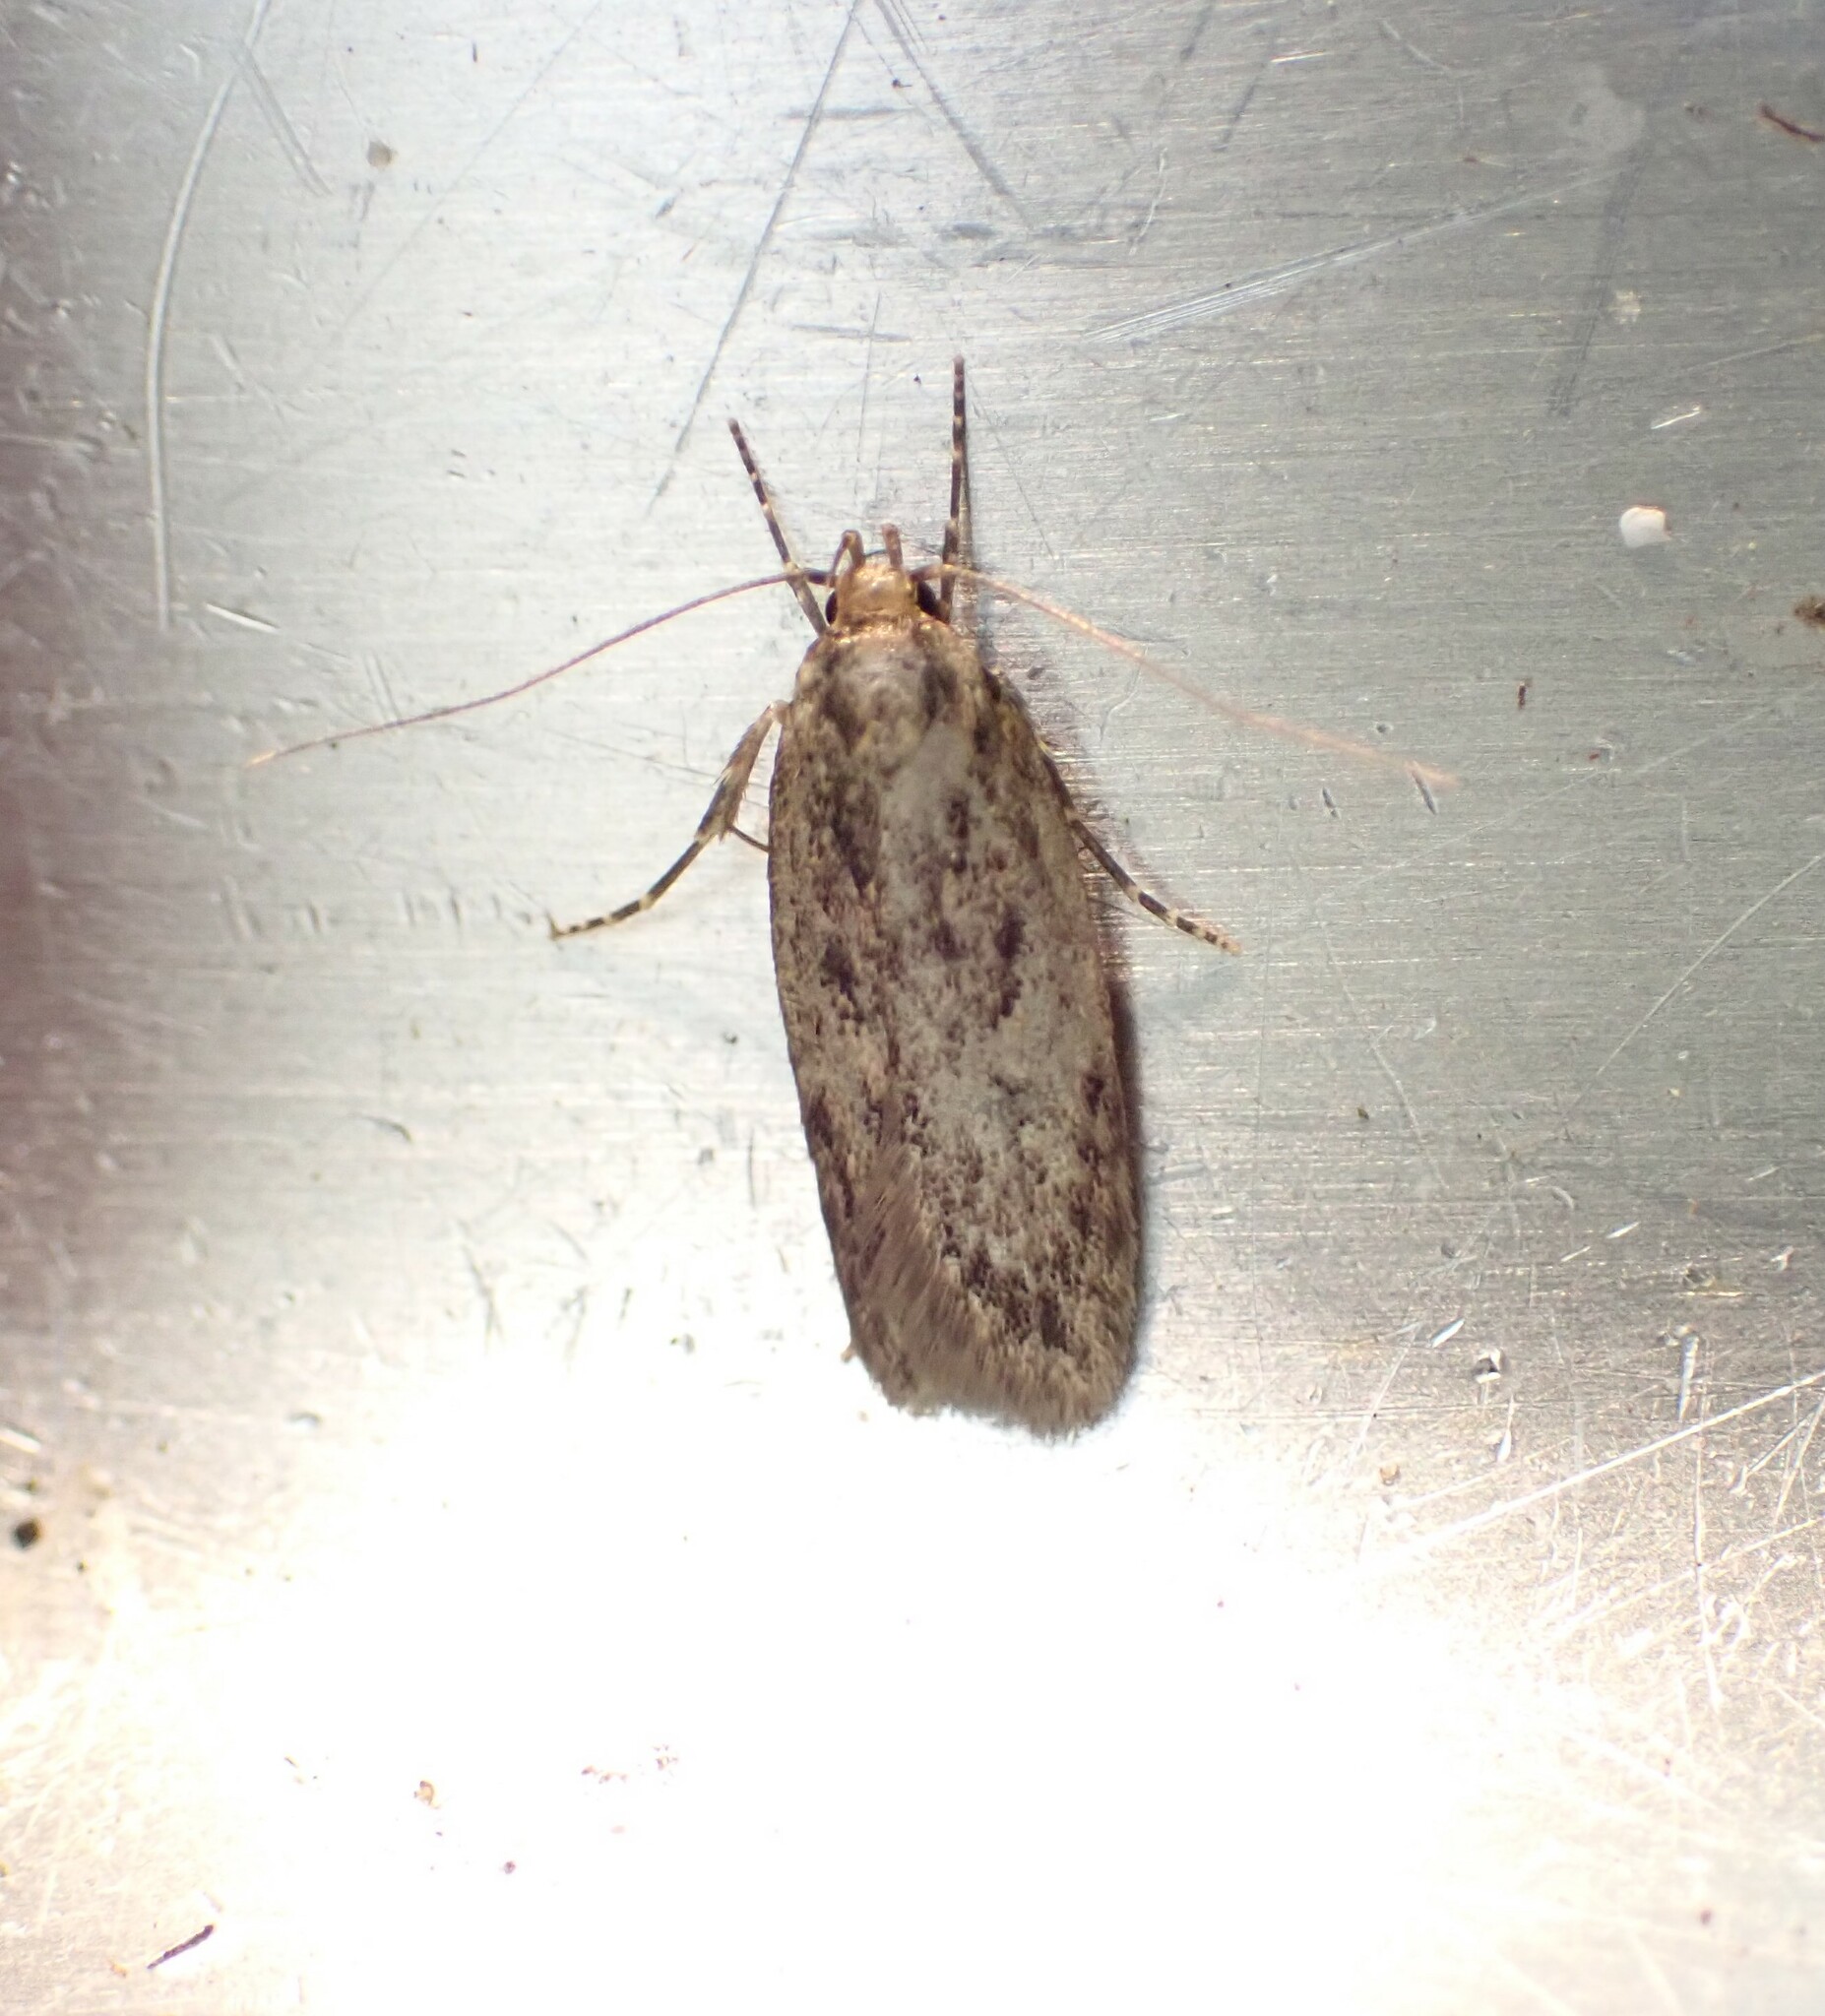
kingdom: Animalia
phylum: Arthropoda
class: Insecta
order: Lepidoptera
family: Oecophoridae
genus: Hofmannophila
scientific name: Hofmannophila pseudospretella
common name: Brown house moth
